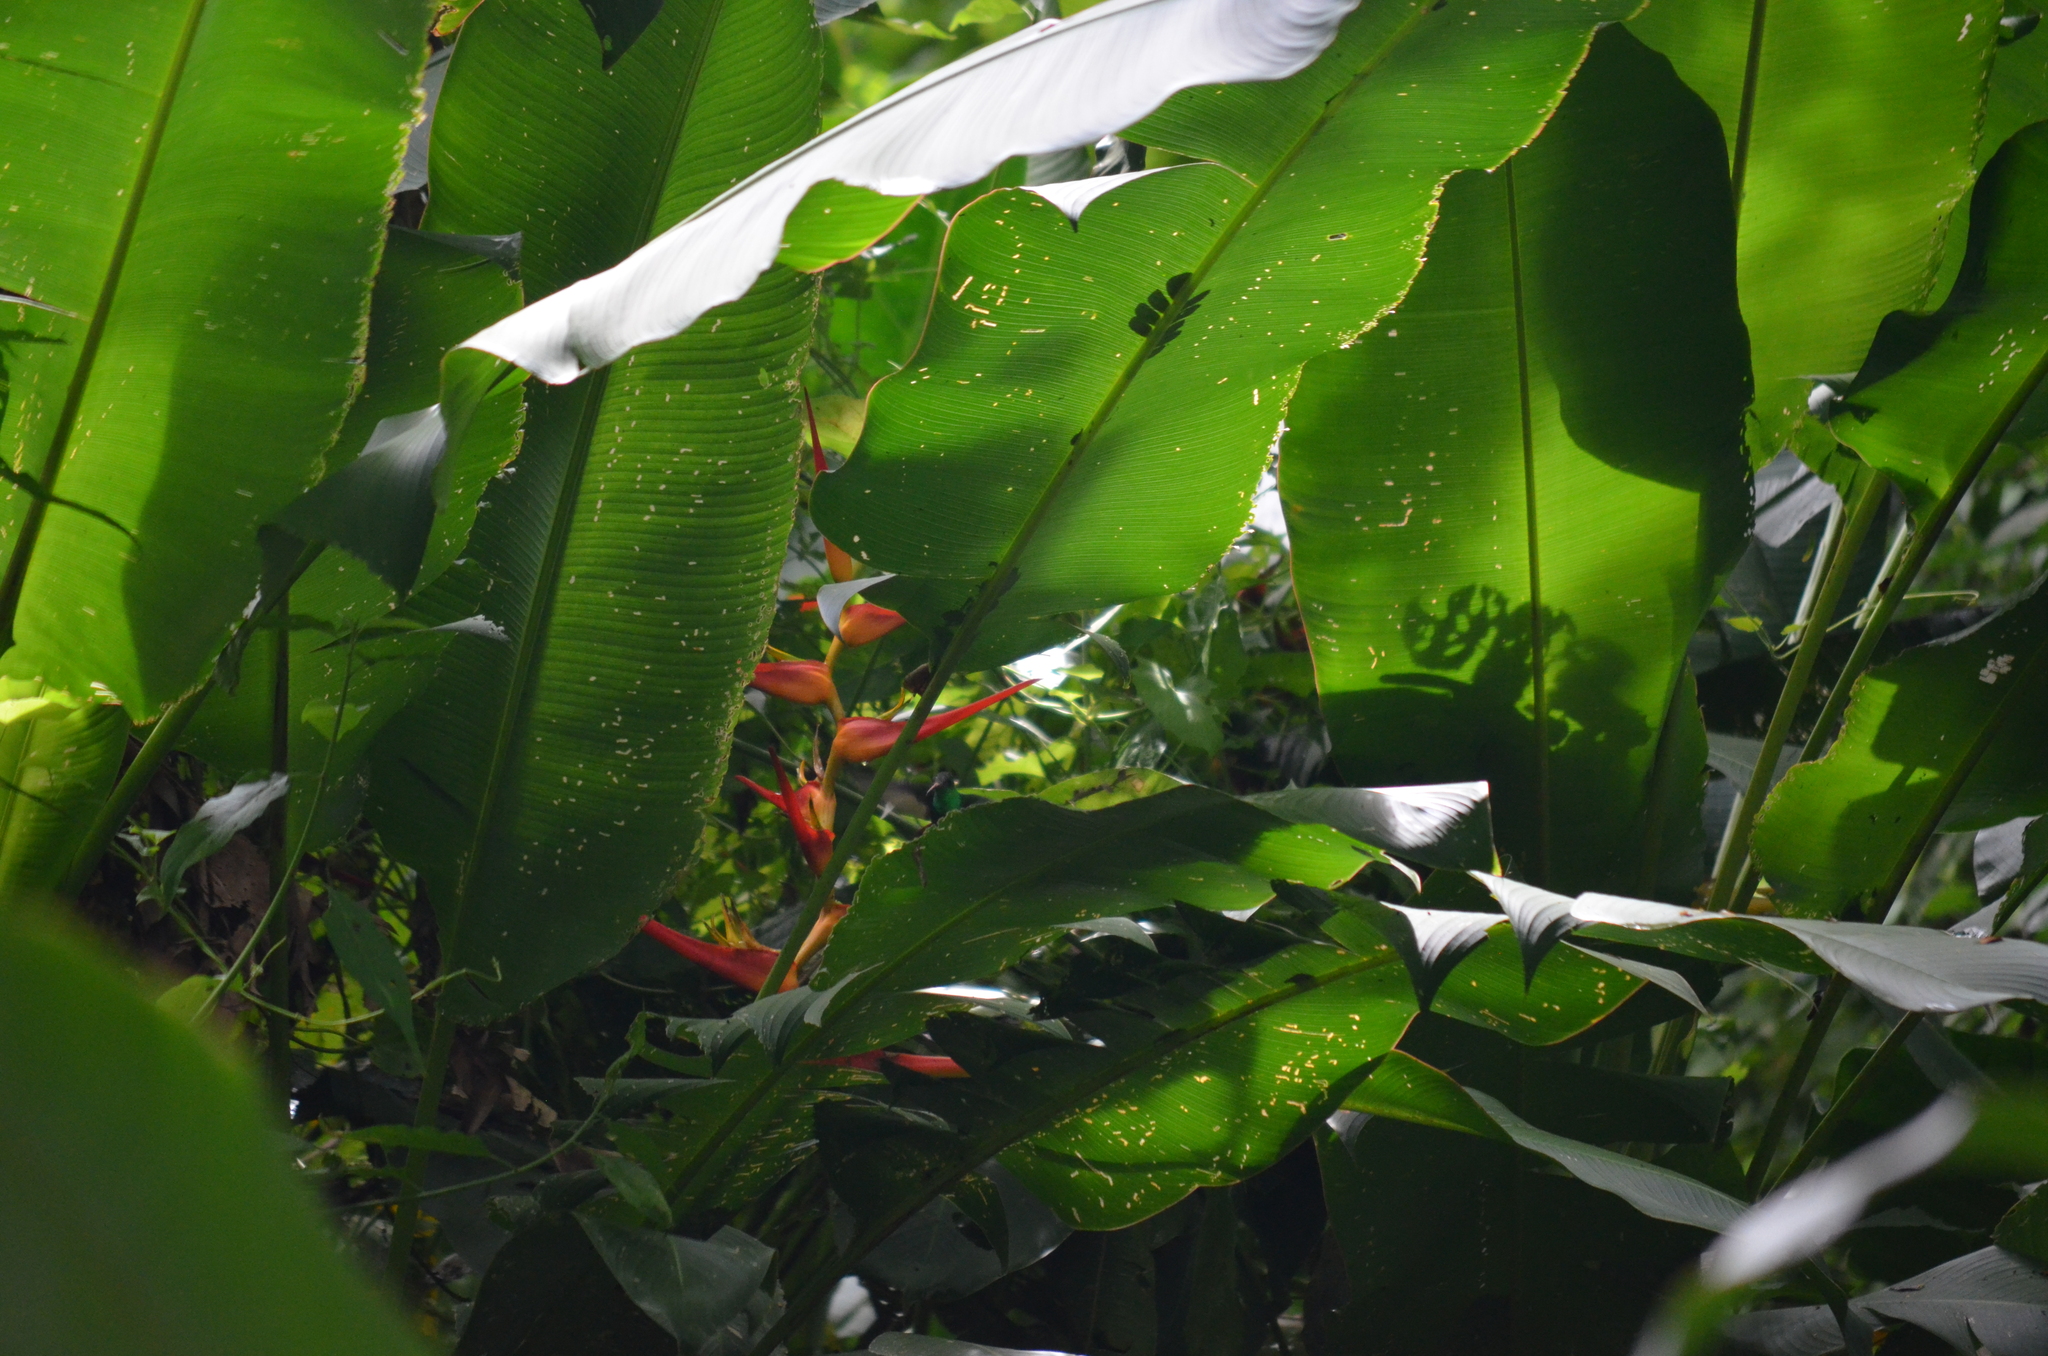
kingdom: Animalia
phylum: Chordata
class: Aves
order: Apodiformes
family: Trochilidae
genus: Amazilia
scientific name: Amazilia tzacatl
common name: Rufous-tailed hummingbird
